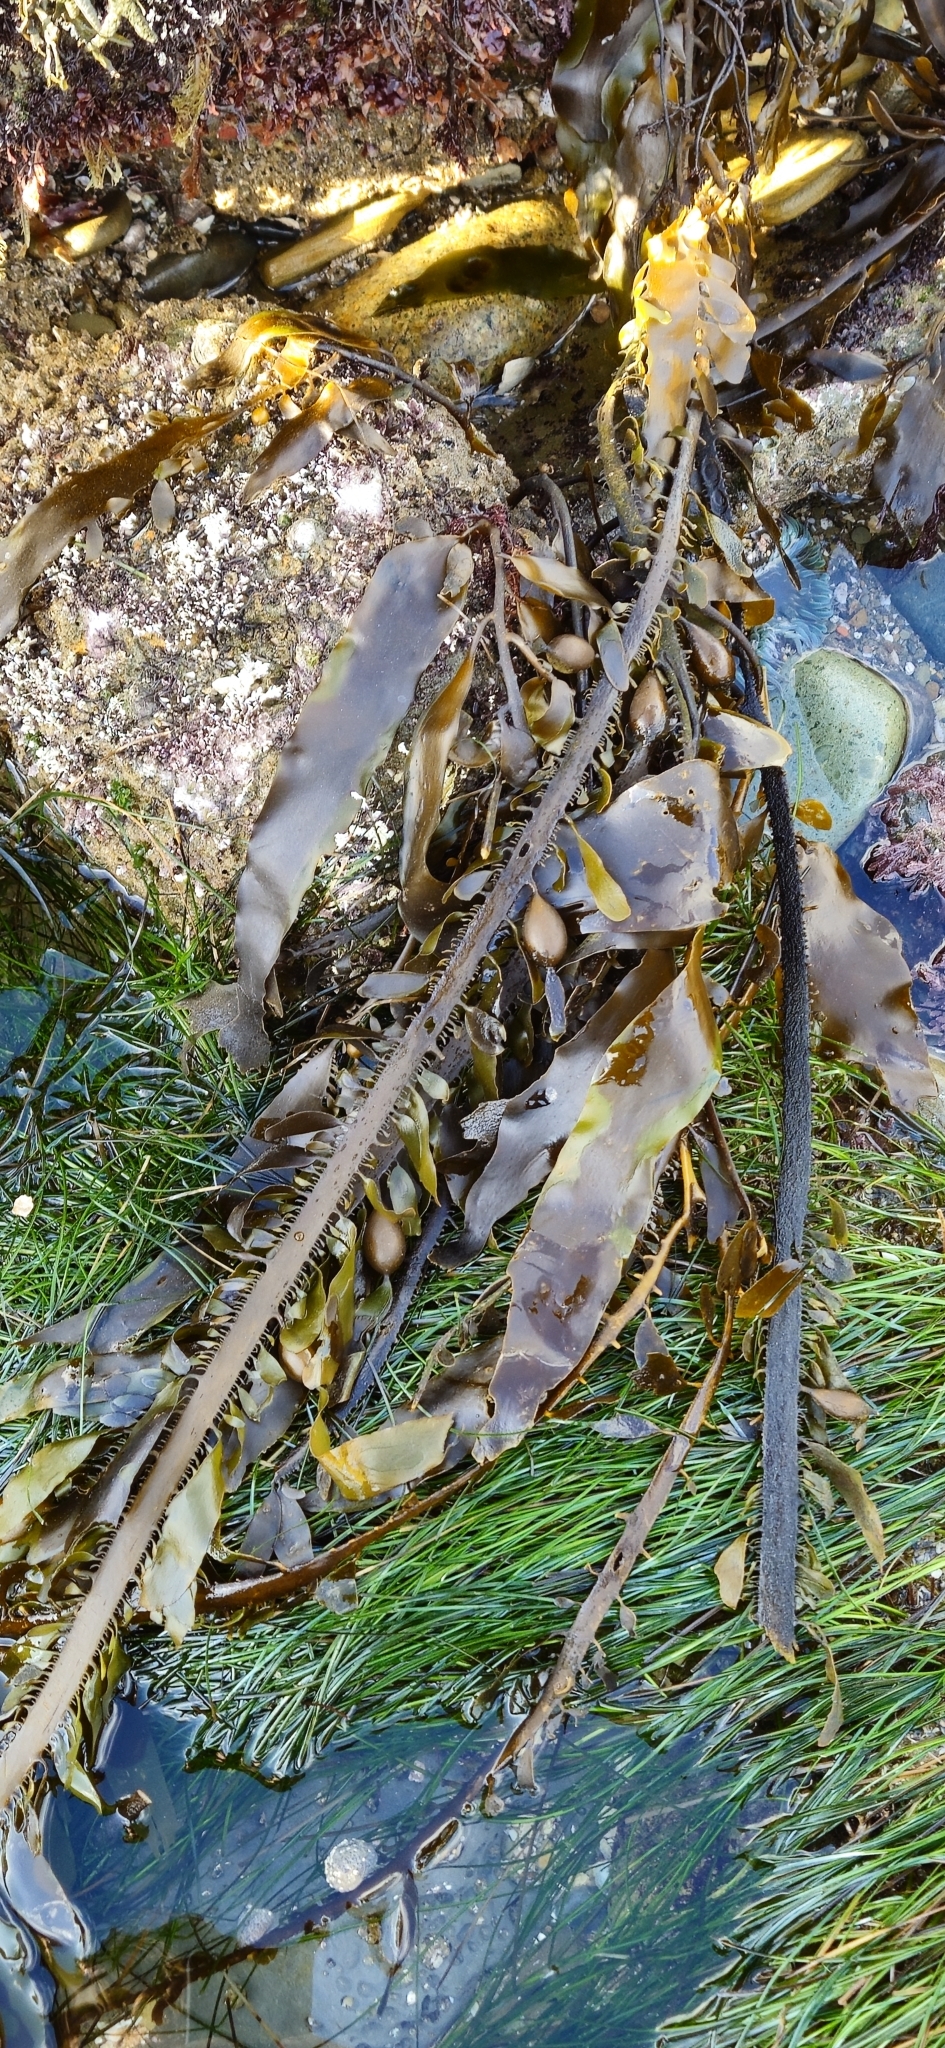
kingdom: Chromista
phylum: Ochrophyta
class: Phaeophyceae
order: Laminariales
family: Lessoniaceae
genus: Egregia
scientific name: Egregia menziesii
